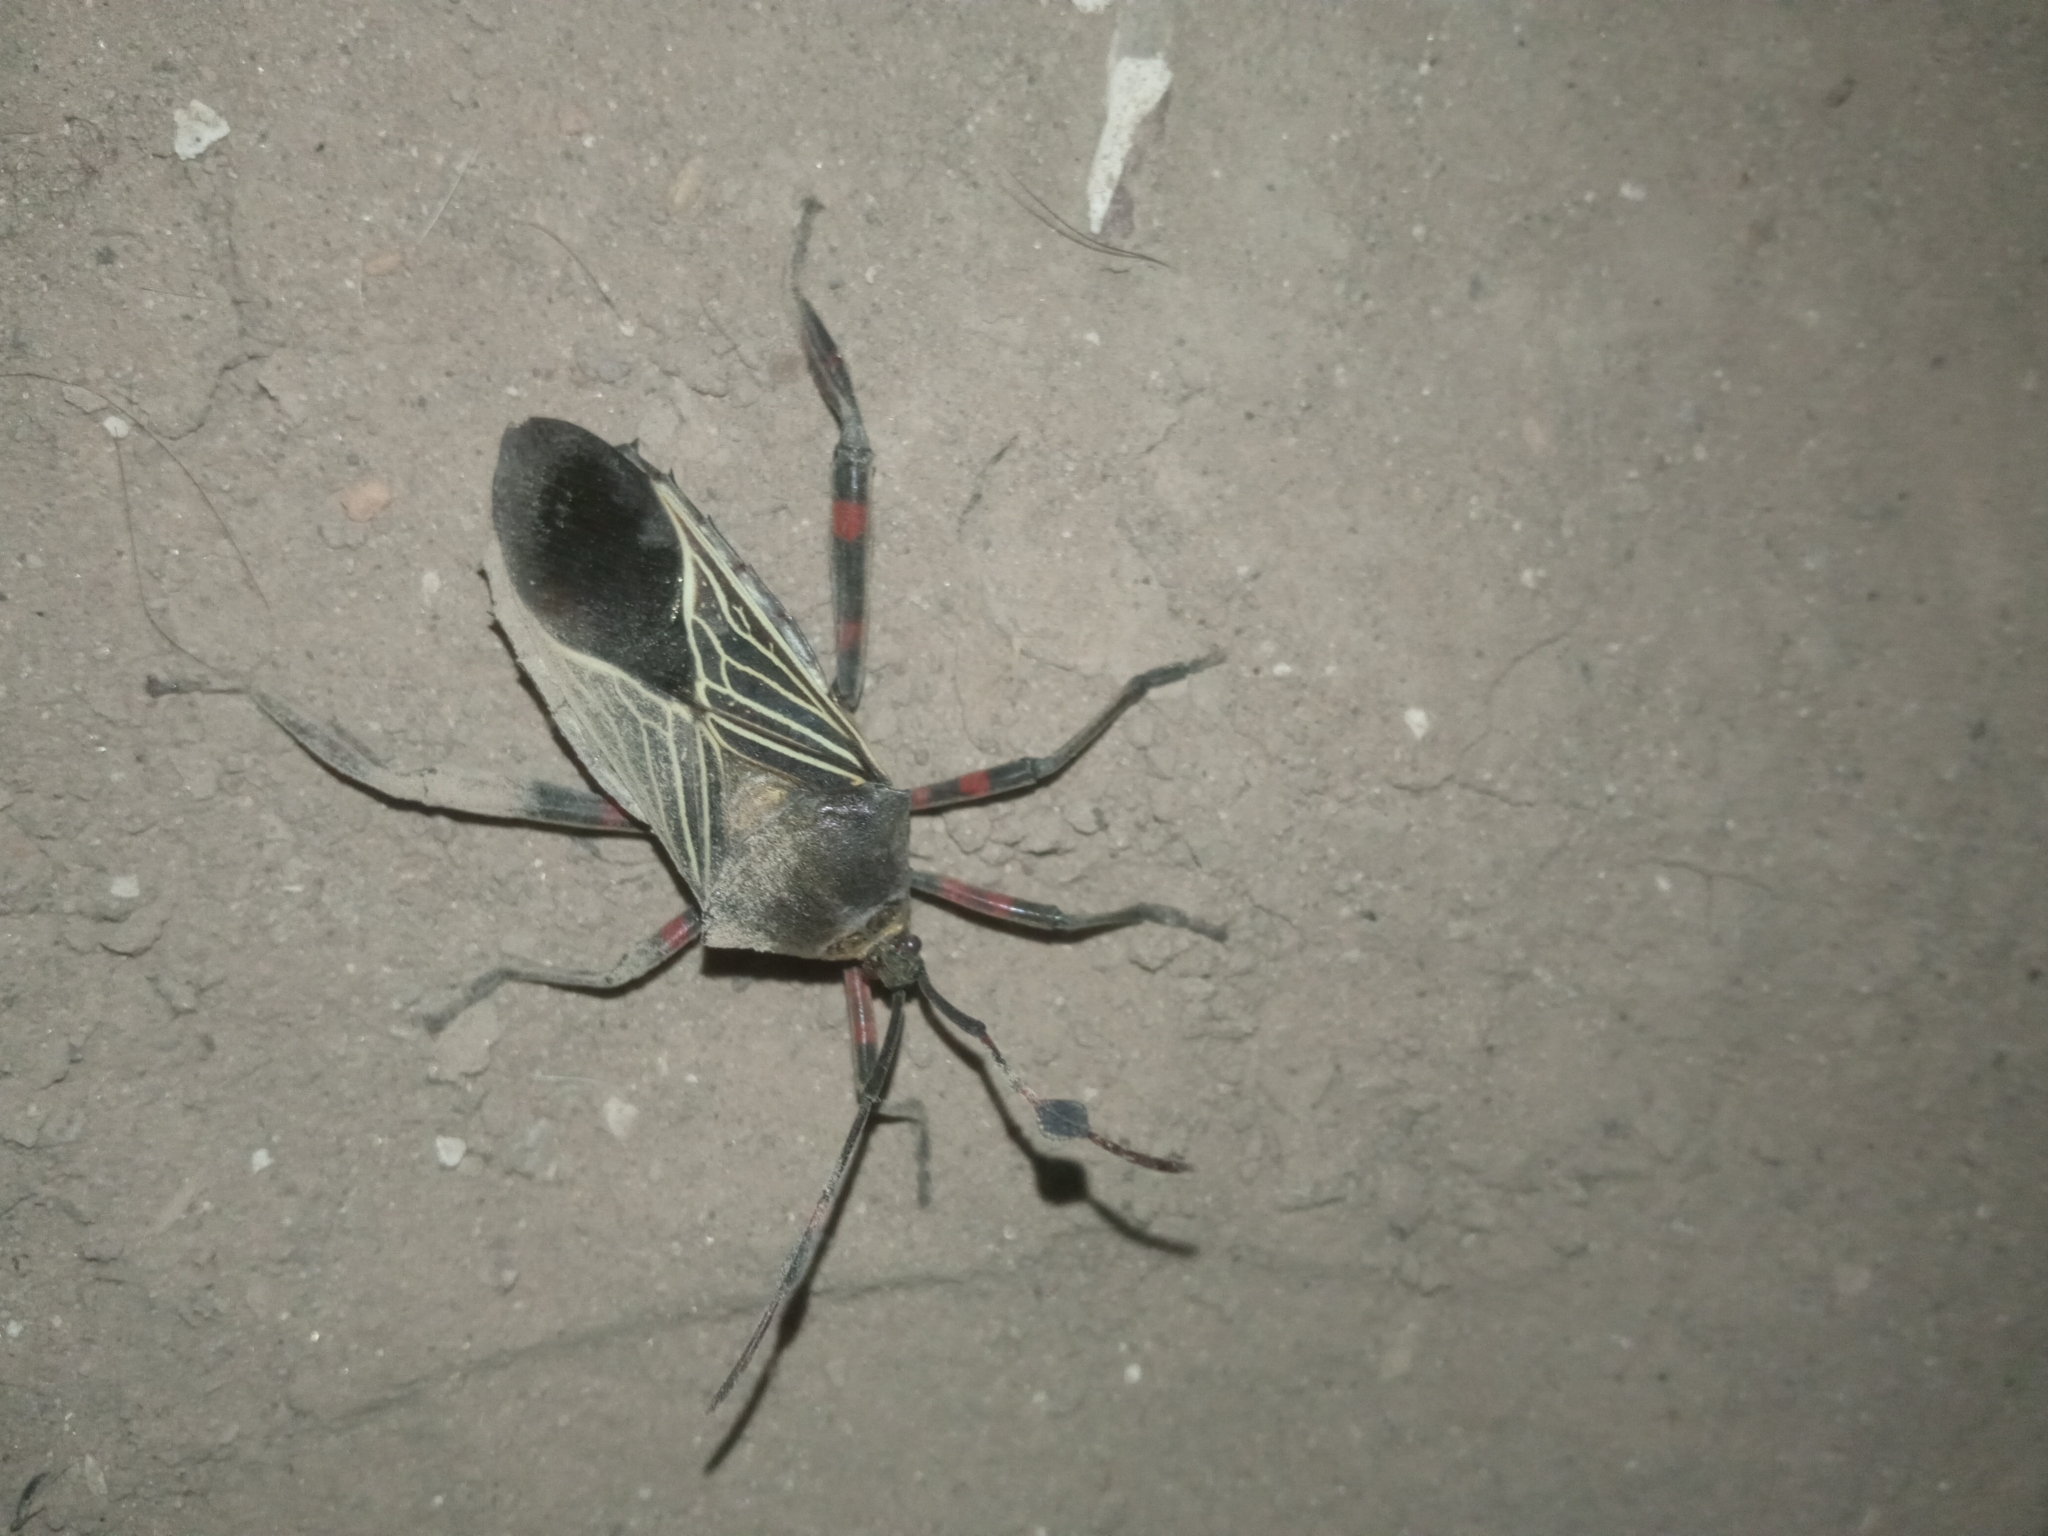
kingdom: Animalia
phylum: Arthropoda
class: Insecta
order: Hemiptera
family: Coreidae
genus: Thasus
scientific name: Thasus neocalifornicus
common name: Giant mesquite bug
